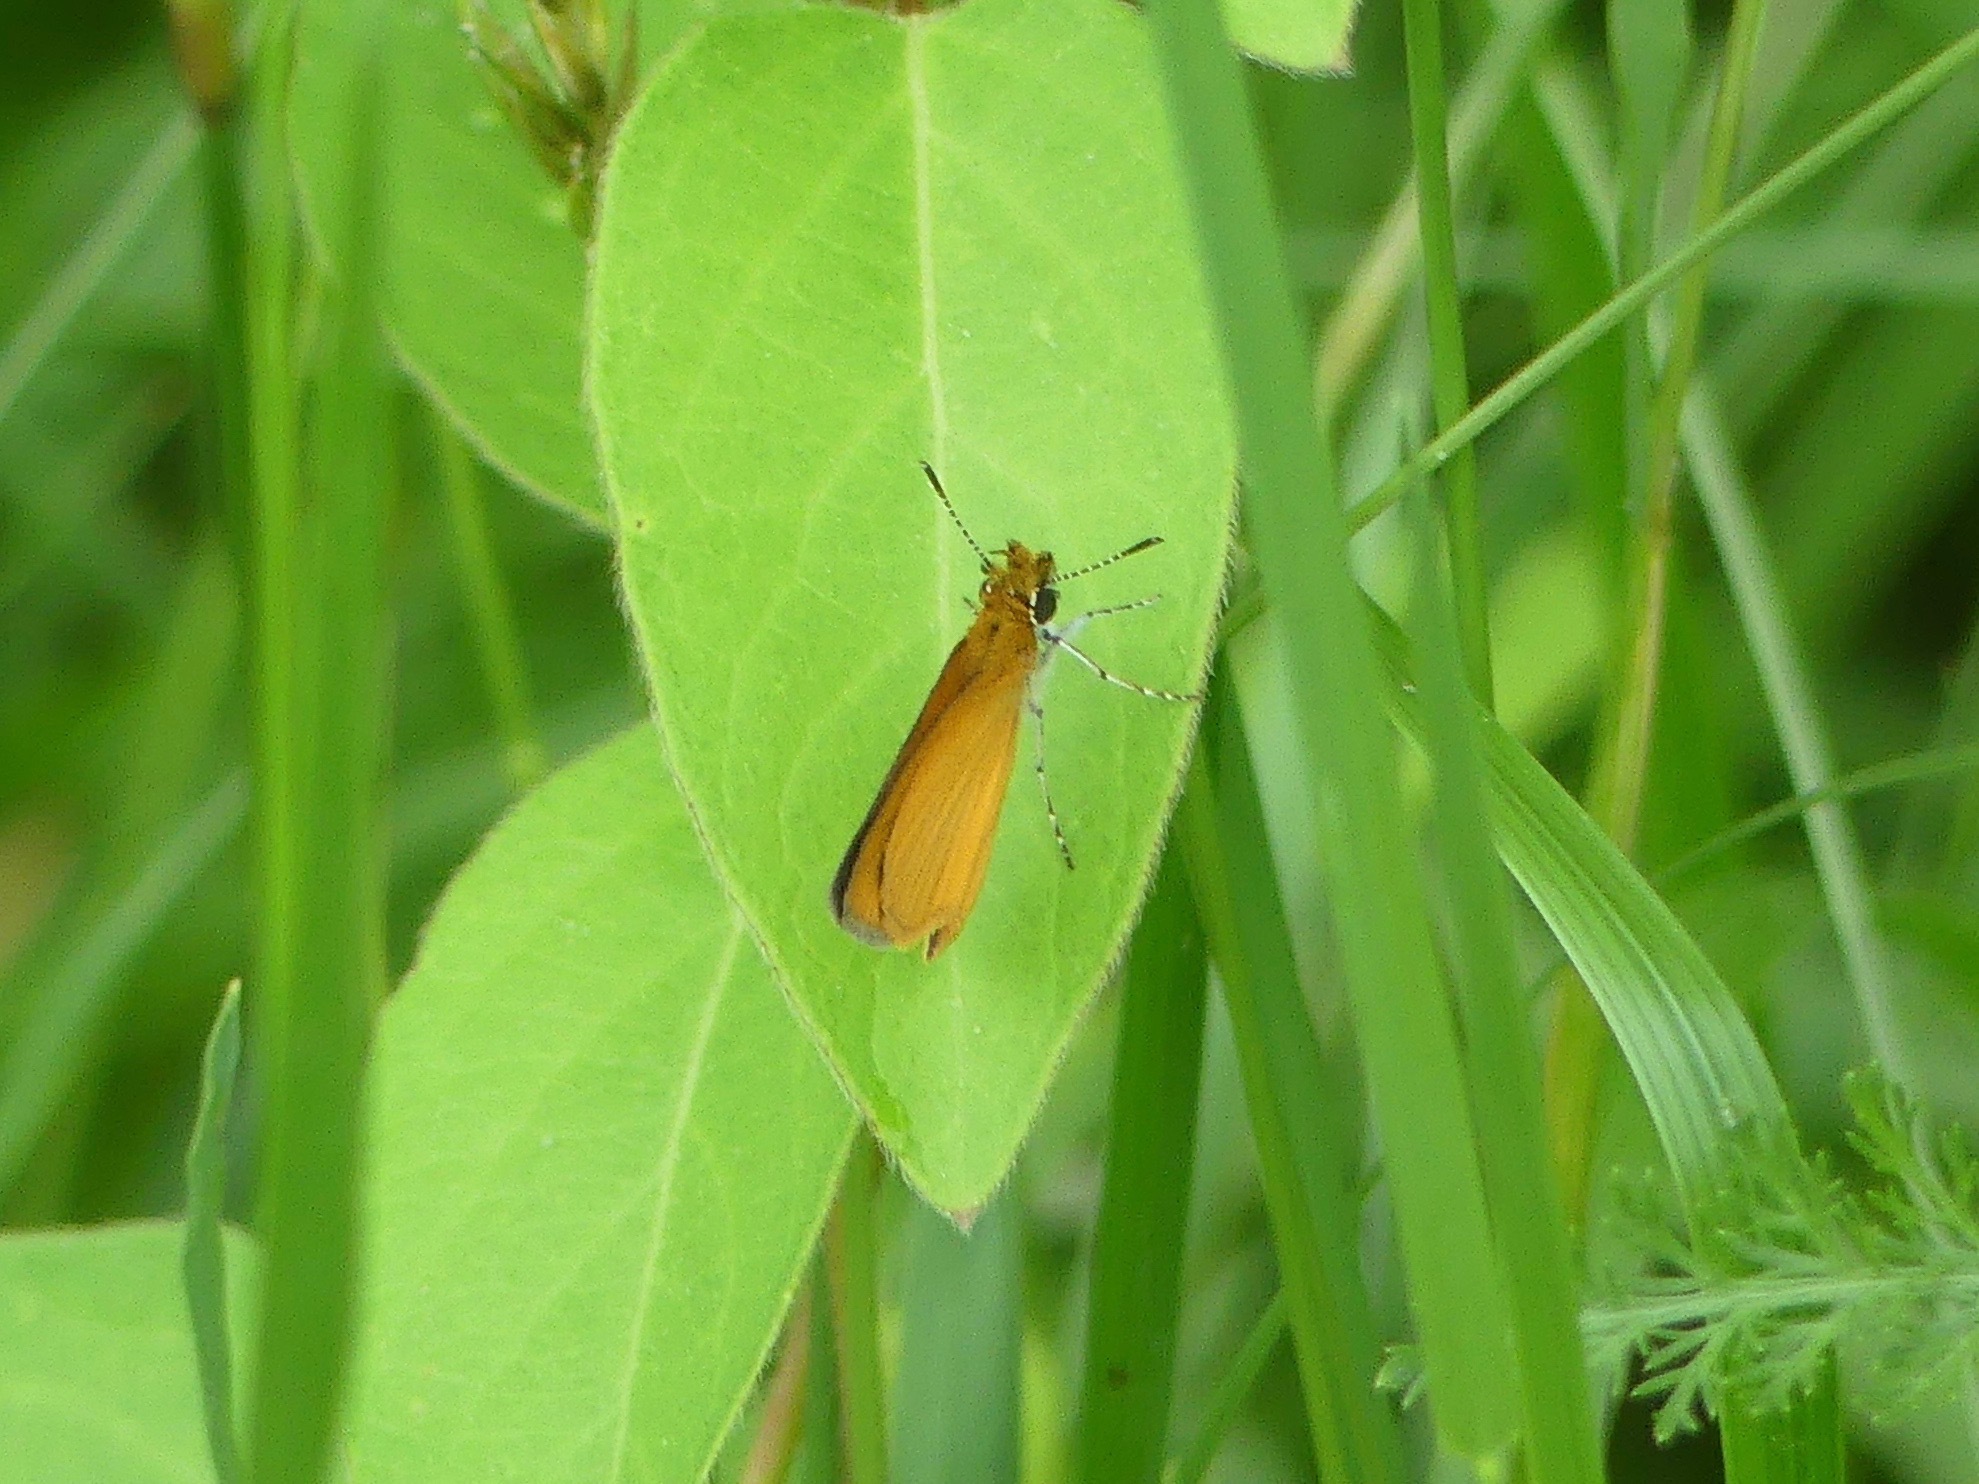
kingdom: Animalia
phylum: Arthropoda
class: Insecta
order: Lepidoptera
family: Hesperiidae
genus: Ancyloxypha
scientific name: Ancyloxypha numitor
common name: Least skipper
